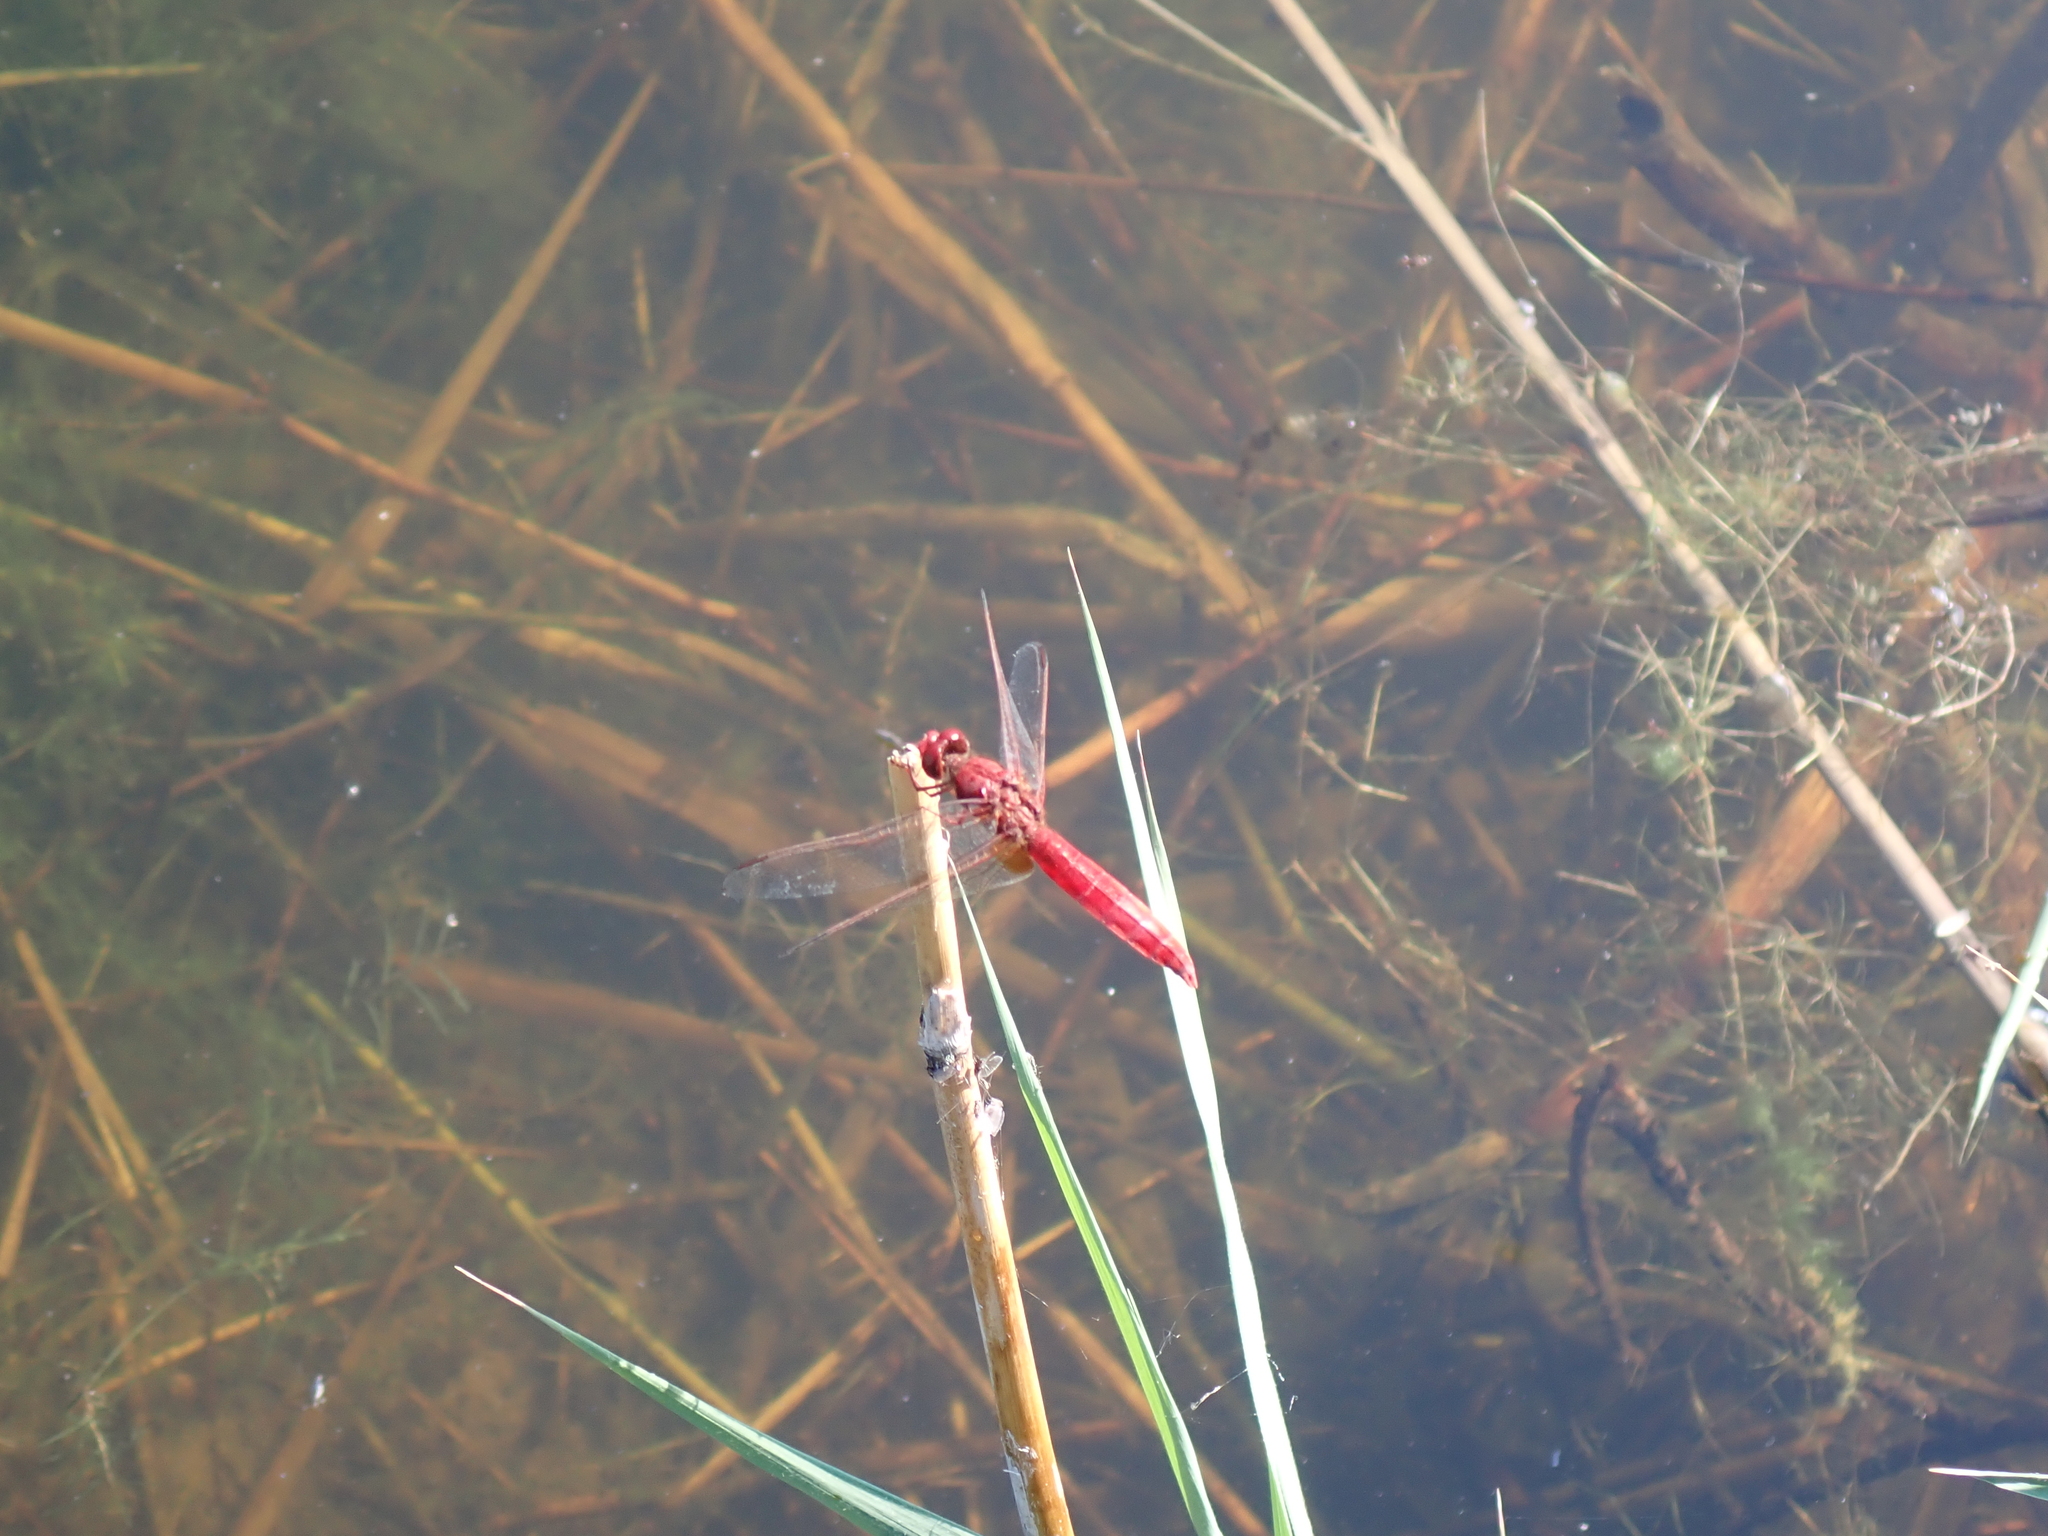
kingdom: Animalia
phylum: Arthropoda
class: Insecta
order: Odonata
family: Libellulidae
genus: Crocothemis
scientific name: Crocothemis erythraea
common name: Scarlet dragonfly
